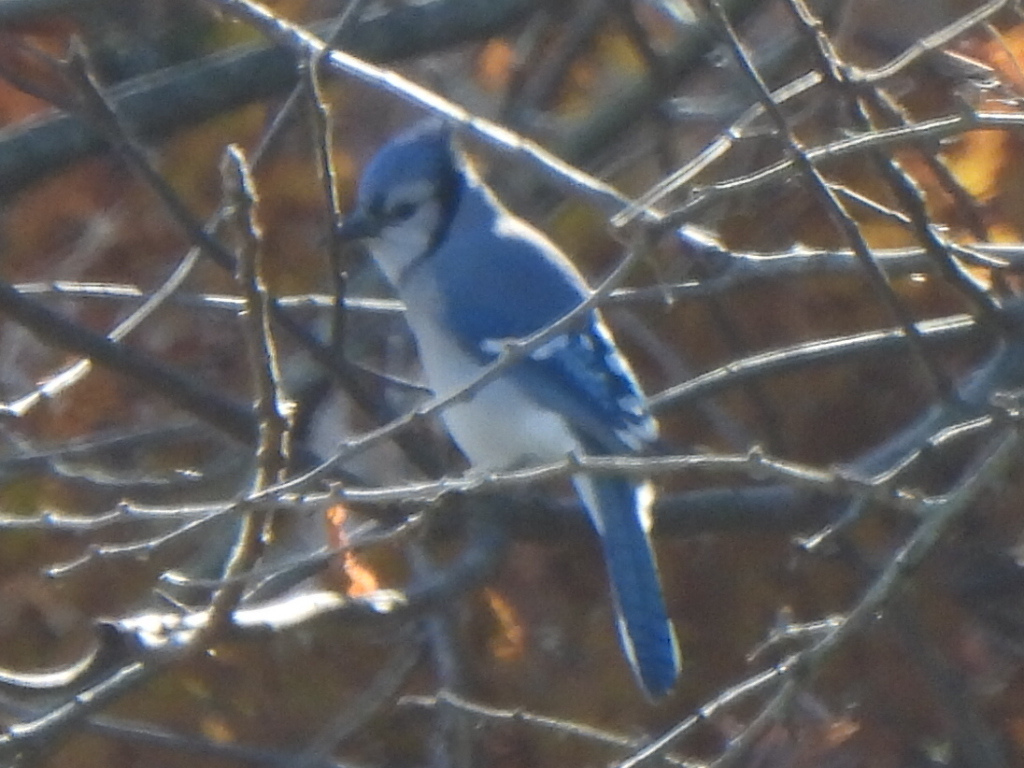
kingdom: Animalia
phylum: Chordata
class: Aves
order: Passeriformes
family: Corvidae
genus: Cyanocitta
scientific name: Cyanocitta cristata
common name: Blue jay
